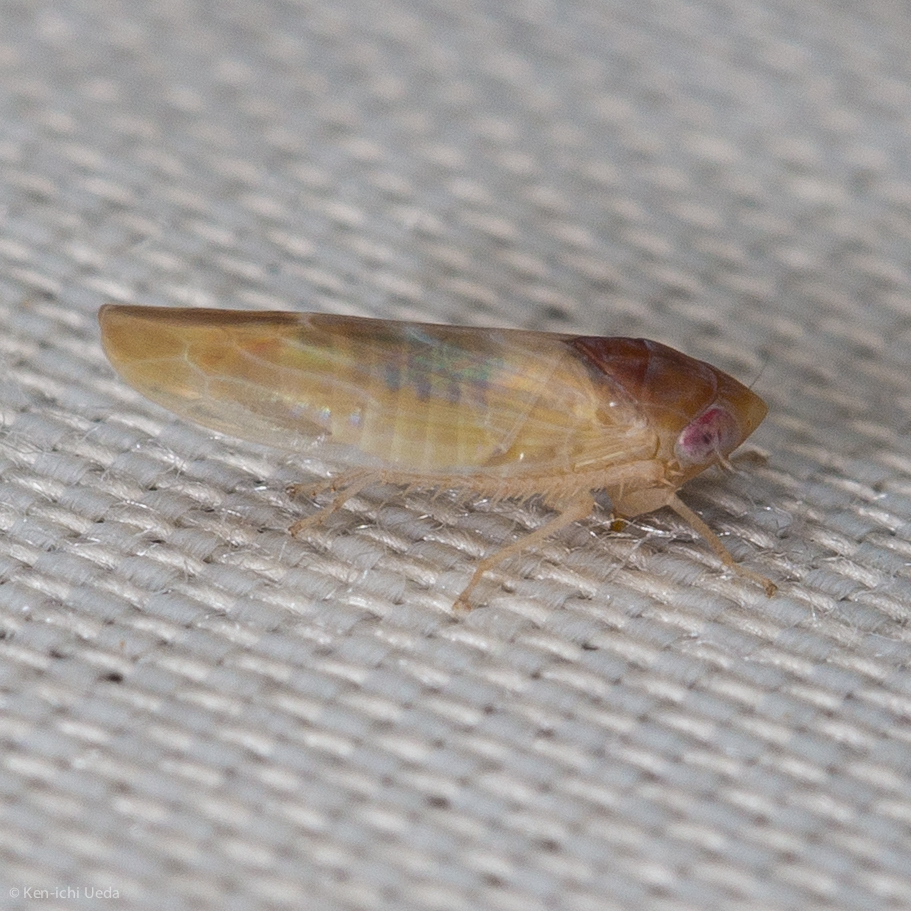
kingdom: Animalia
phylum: Arthropoda
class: Insecta
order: Hemiptera
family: Cicadellidae
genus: Colladonus
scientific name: Colladonus aureolus
